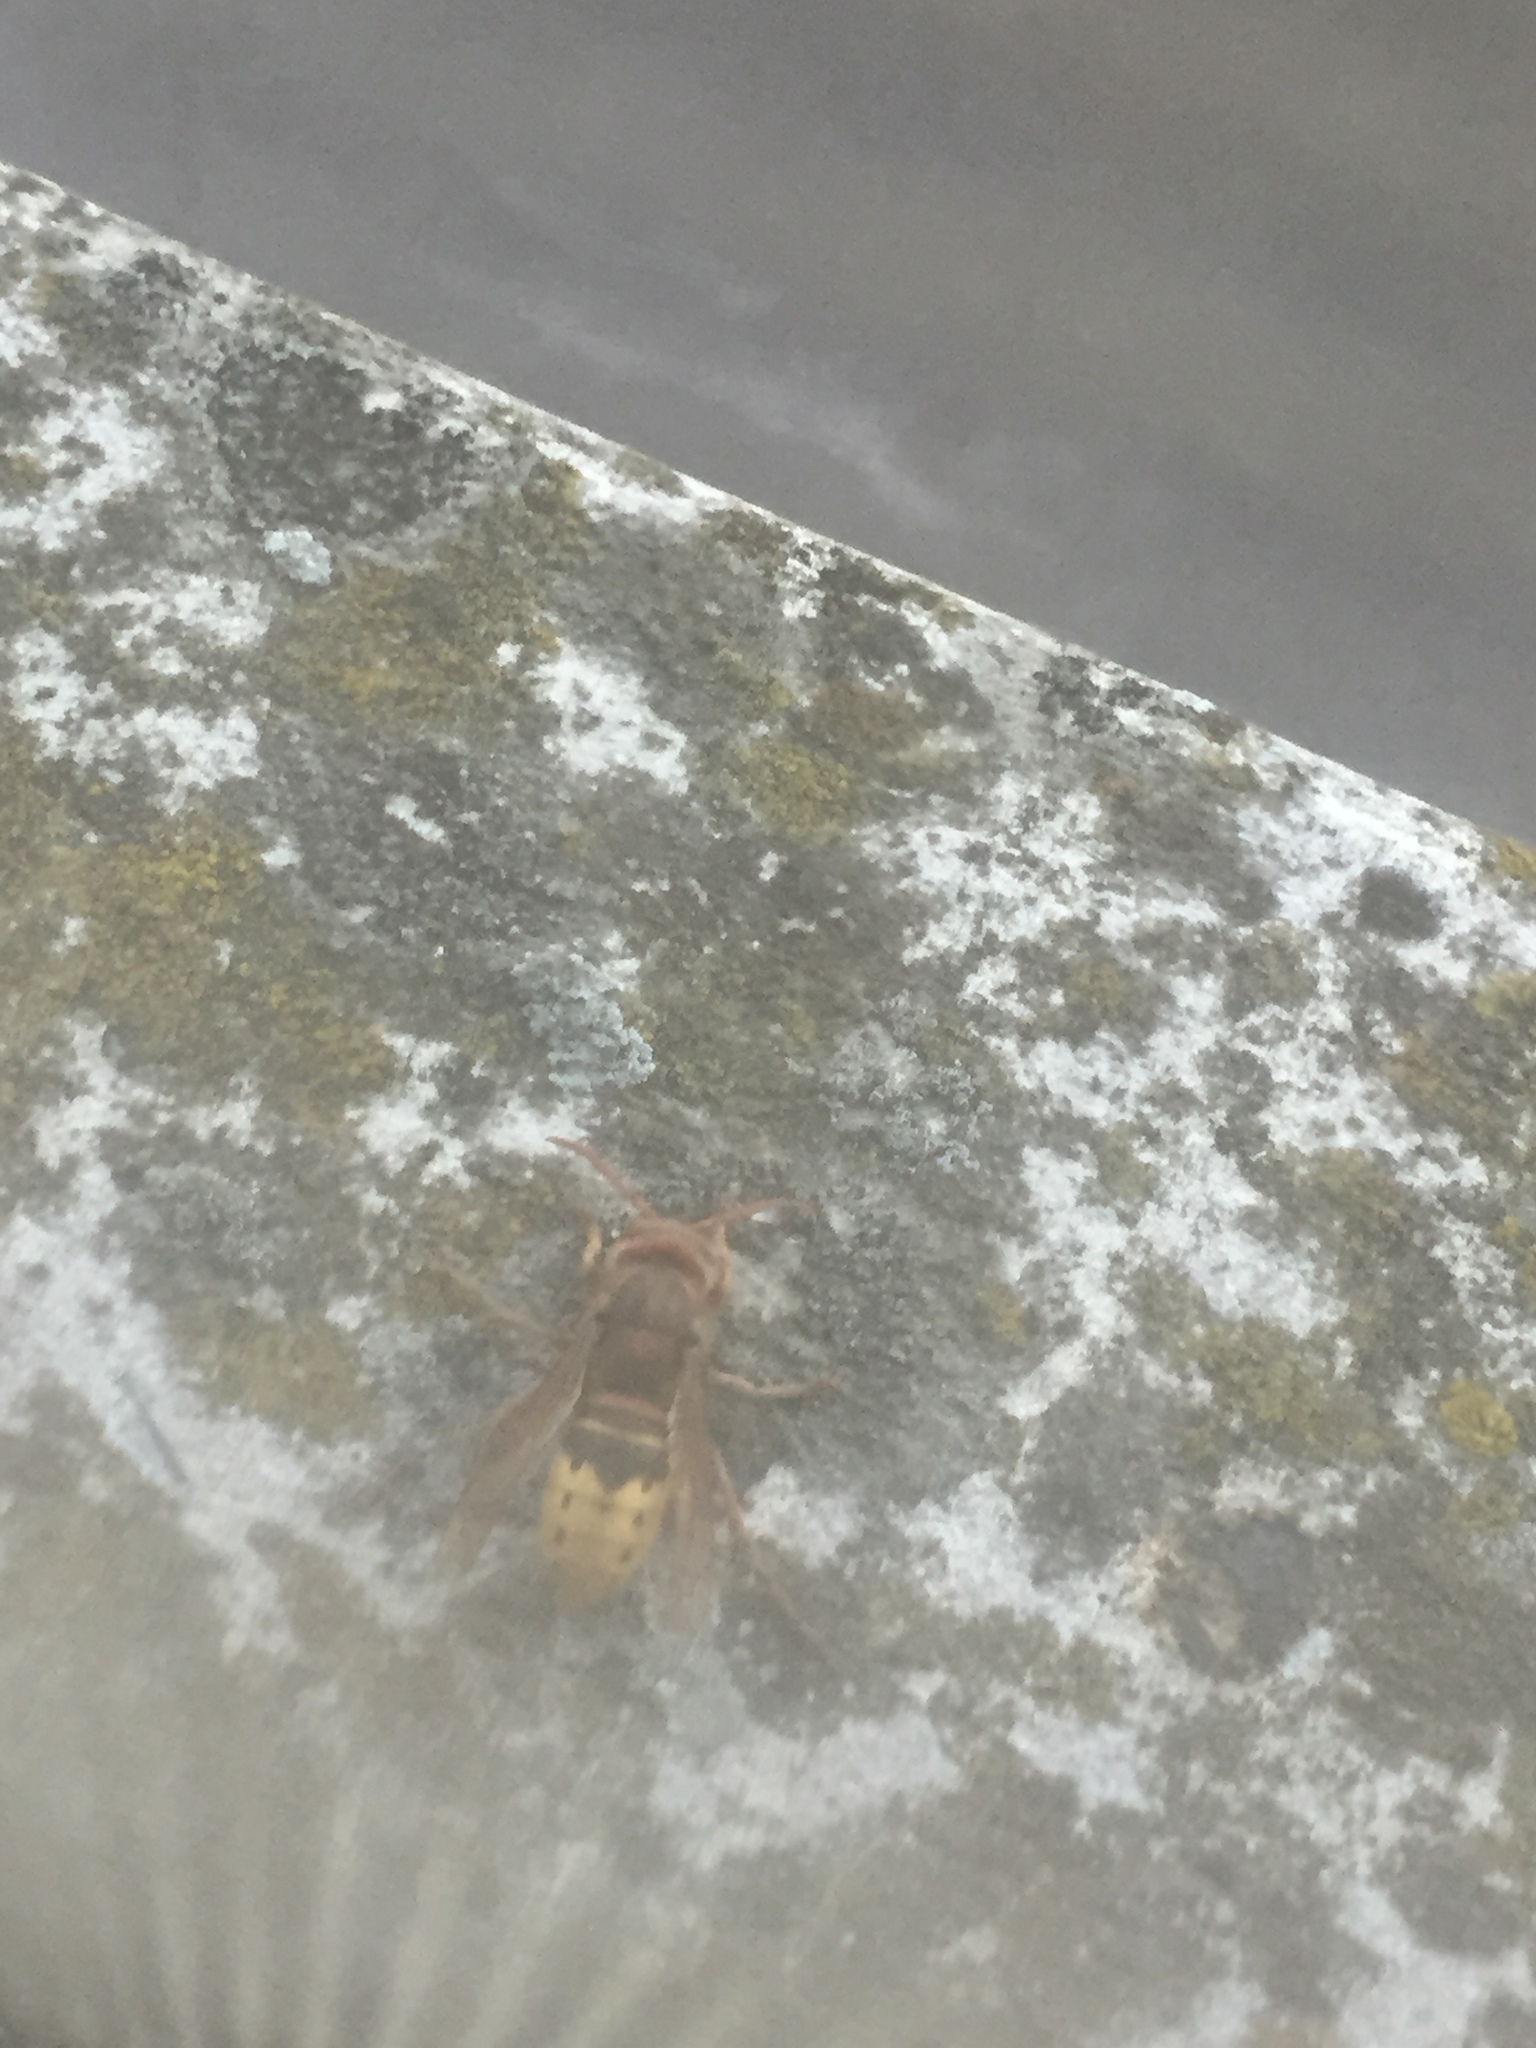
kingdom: Animalia
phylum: Arthropoda
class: Insecta
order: Hymenoptera
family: Vespidae
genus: Vespa
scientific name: Vespa crabro
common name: Hornet
